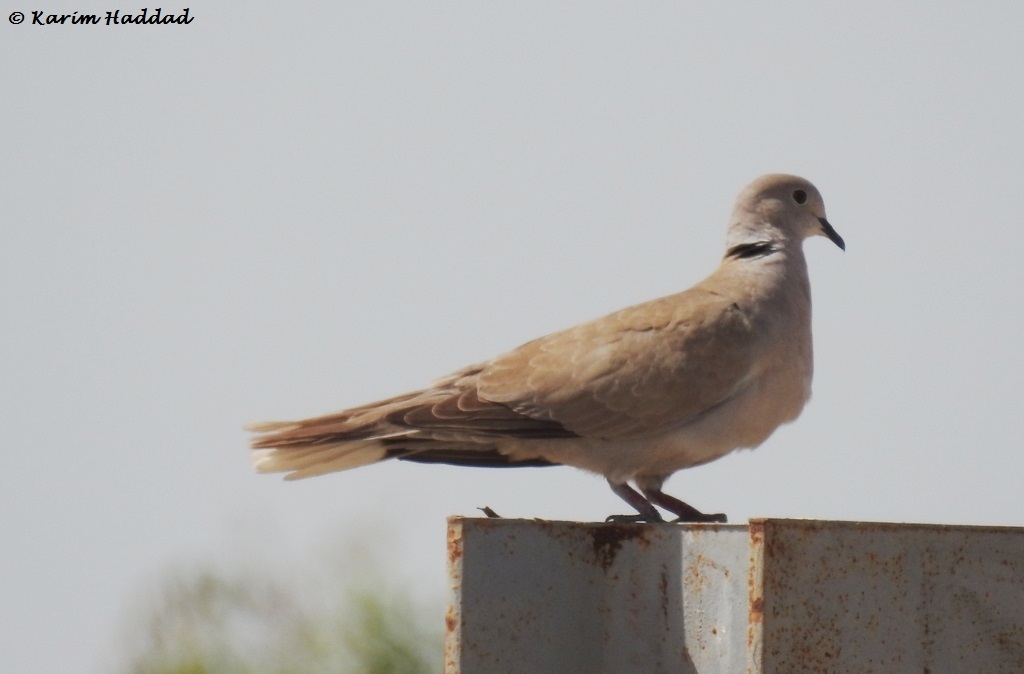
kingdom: Animalia
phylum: Chordata
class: Aves
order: Columbiformes
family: Columbidae
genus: Streptopelia
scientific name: Streptopelia decaocto
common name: Eurasian collared dove
